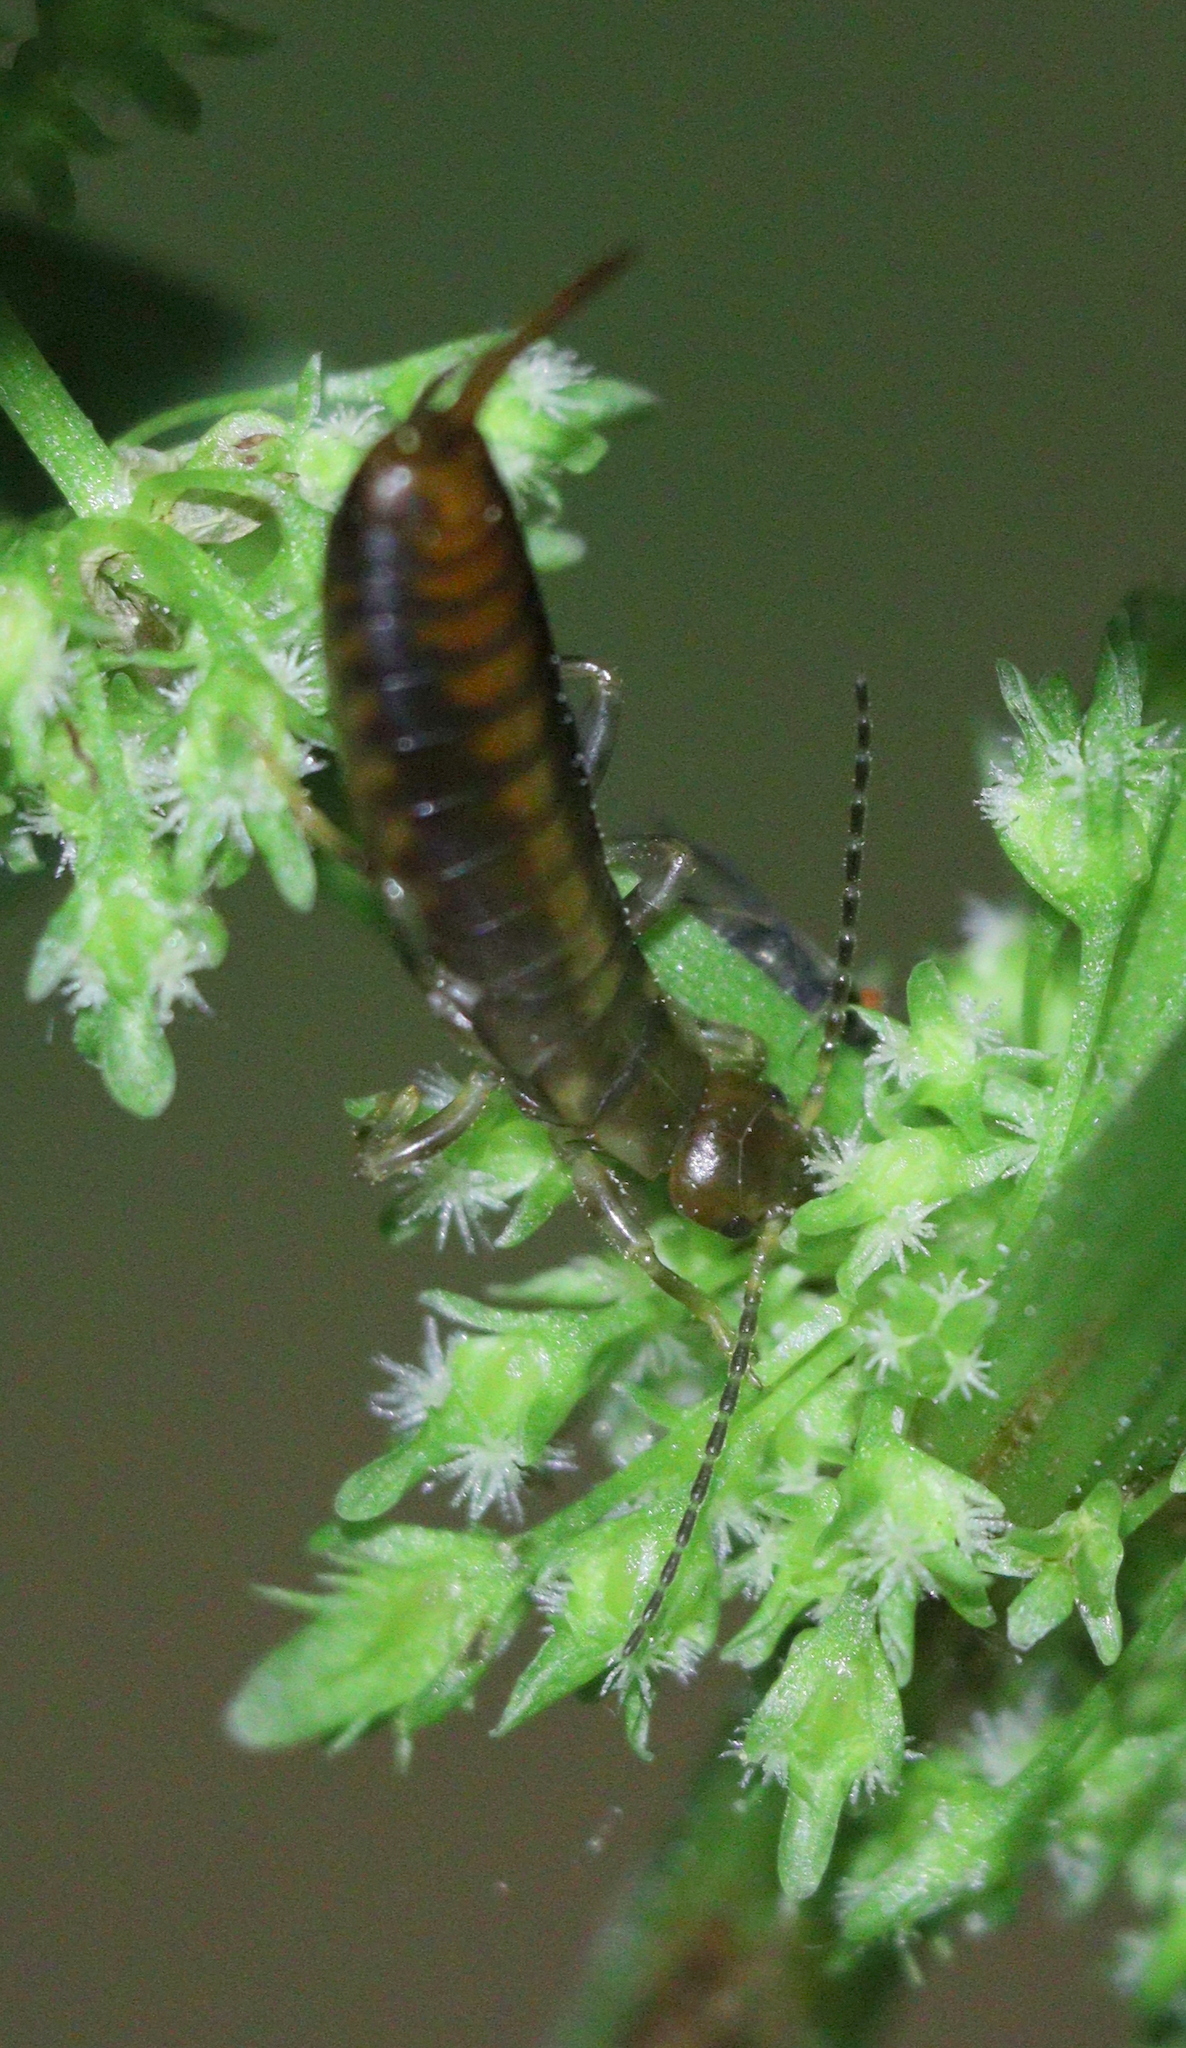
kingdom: Animalia
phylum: Arthropoda
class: Insecta
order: Dermaptera
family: Forficulidae
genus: Chelidurella
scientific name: Chelidurella acanthopygia
